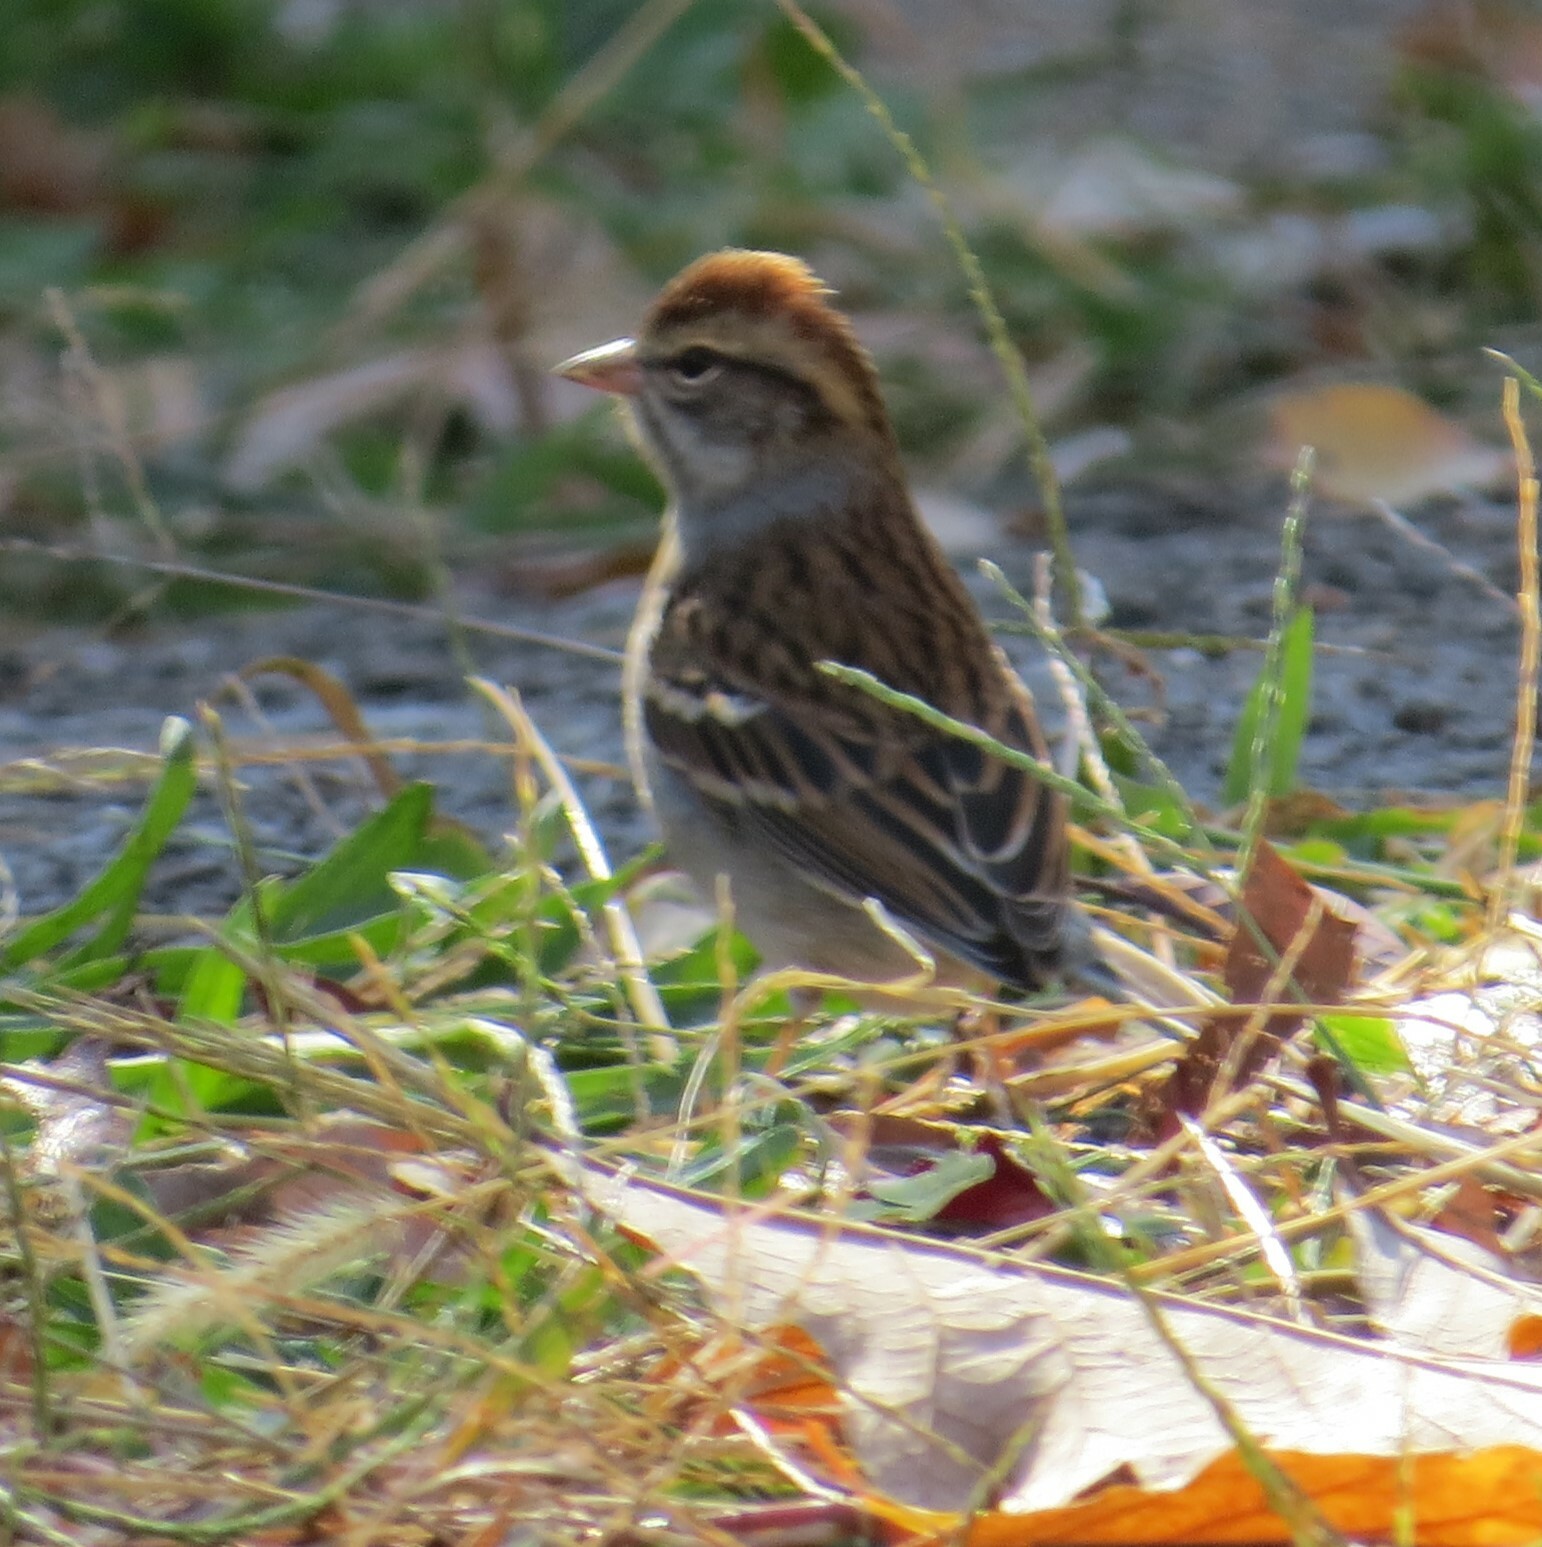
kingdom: Animalia
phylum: Chordata
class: Aves
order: Passeriformes
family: Passerellidae
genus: Spizella
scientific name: Spizella passerina
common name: Chipping sparrow
